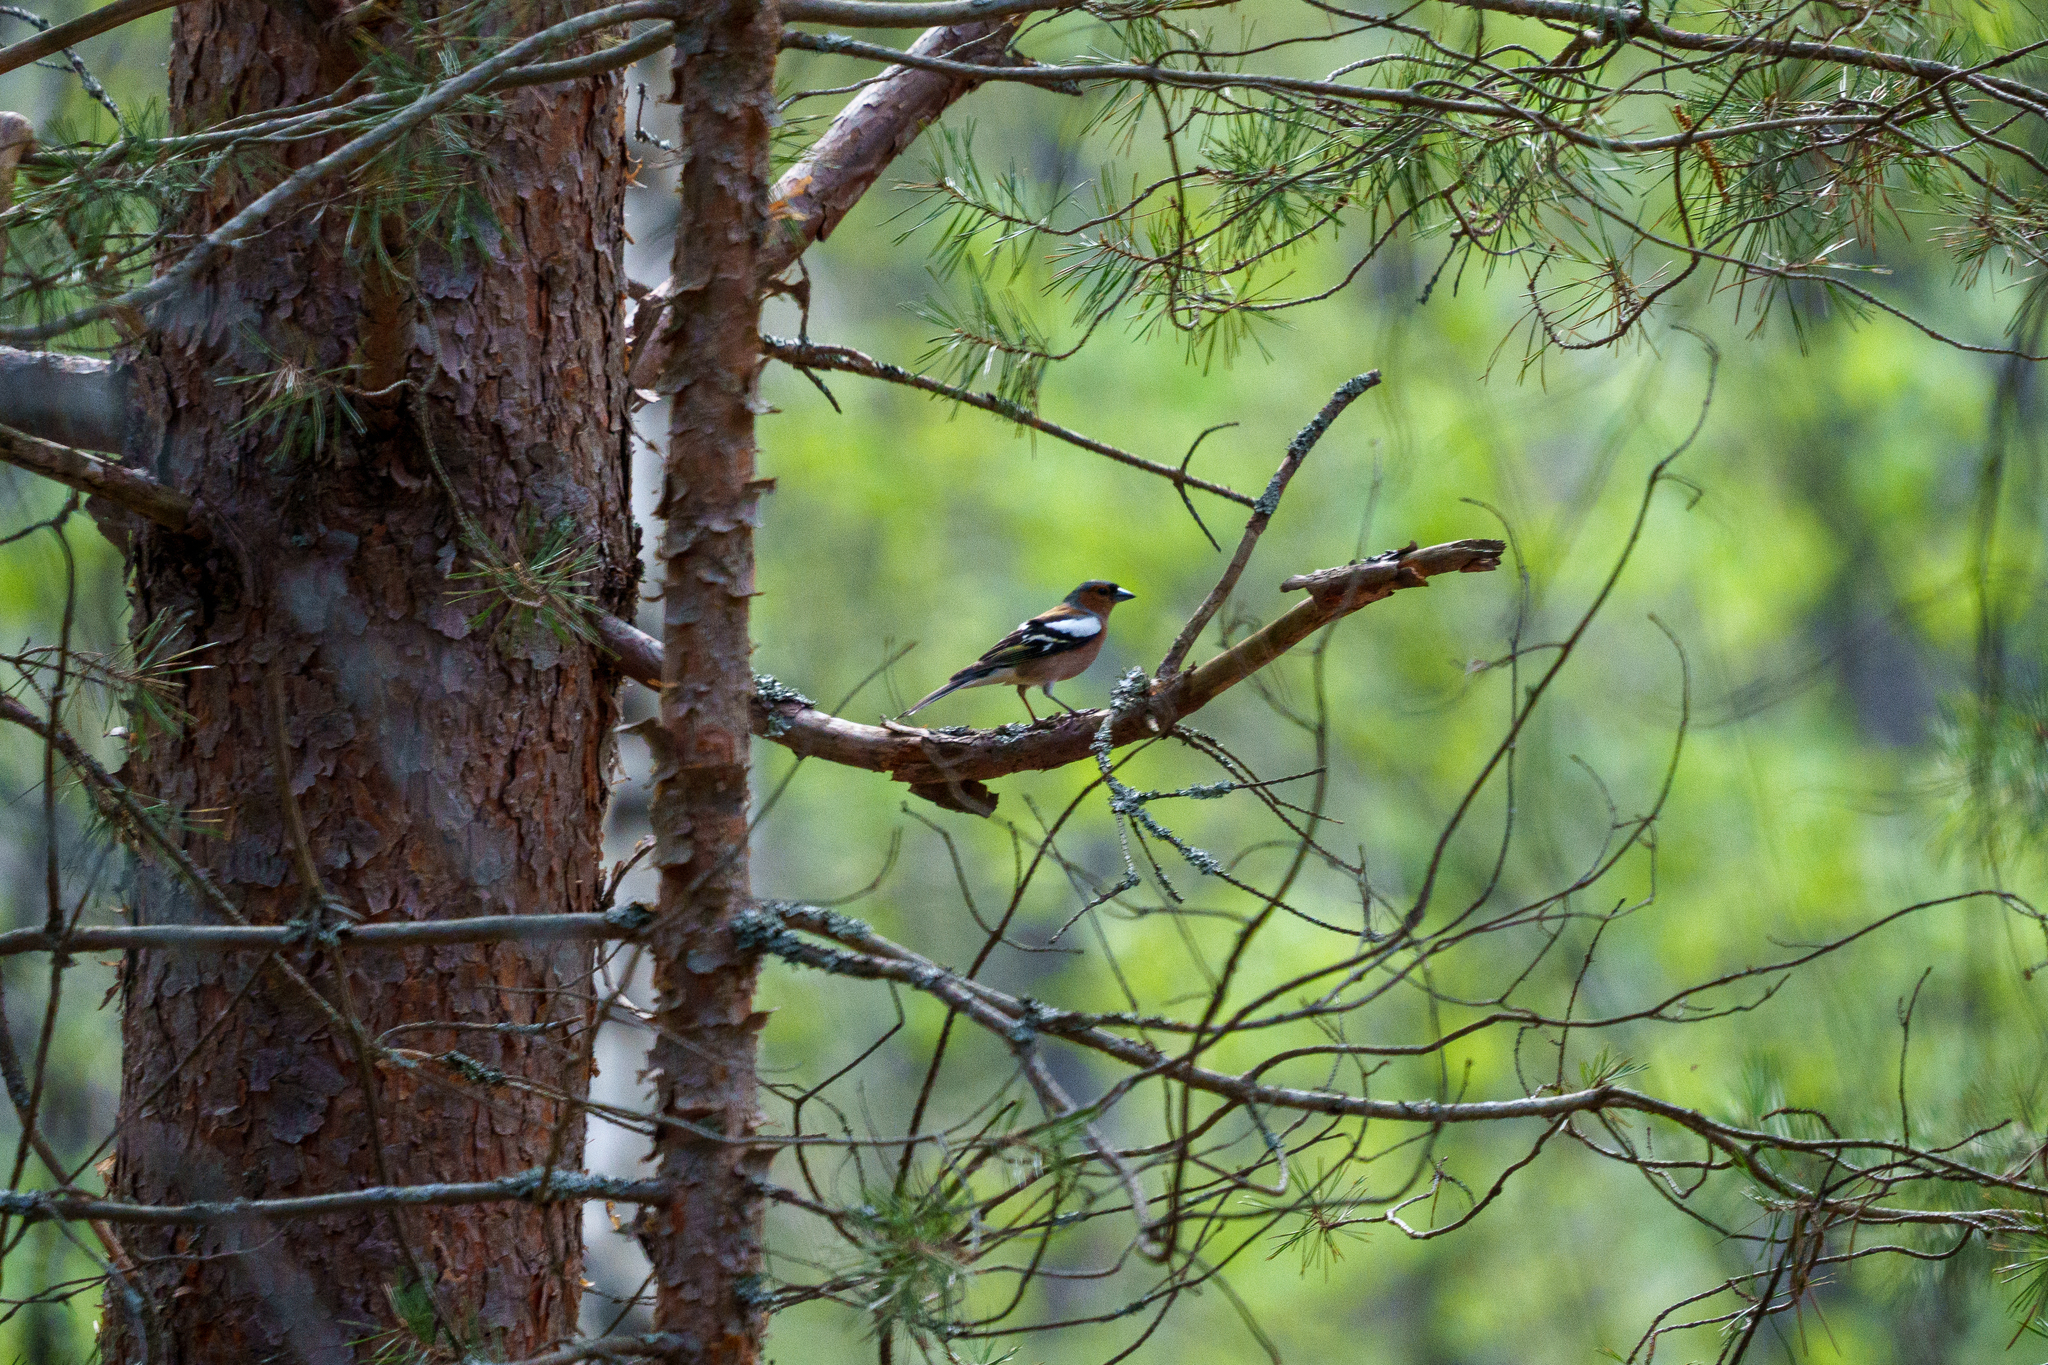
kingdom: Animalia
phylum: Chordata
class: Aves
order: Passeriformes
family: Fringillidae
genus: Fringilla
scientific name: Fringilla coelebs
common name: Common chaffinch
